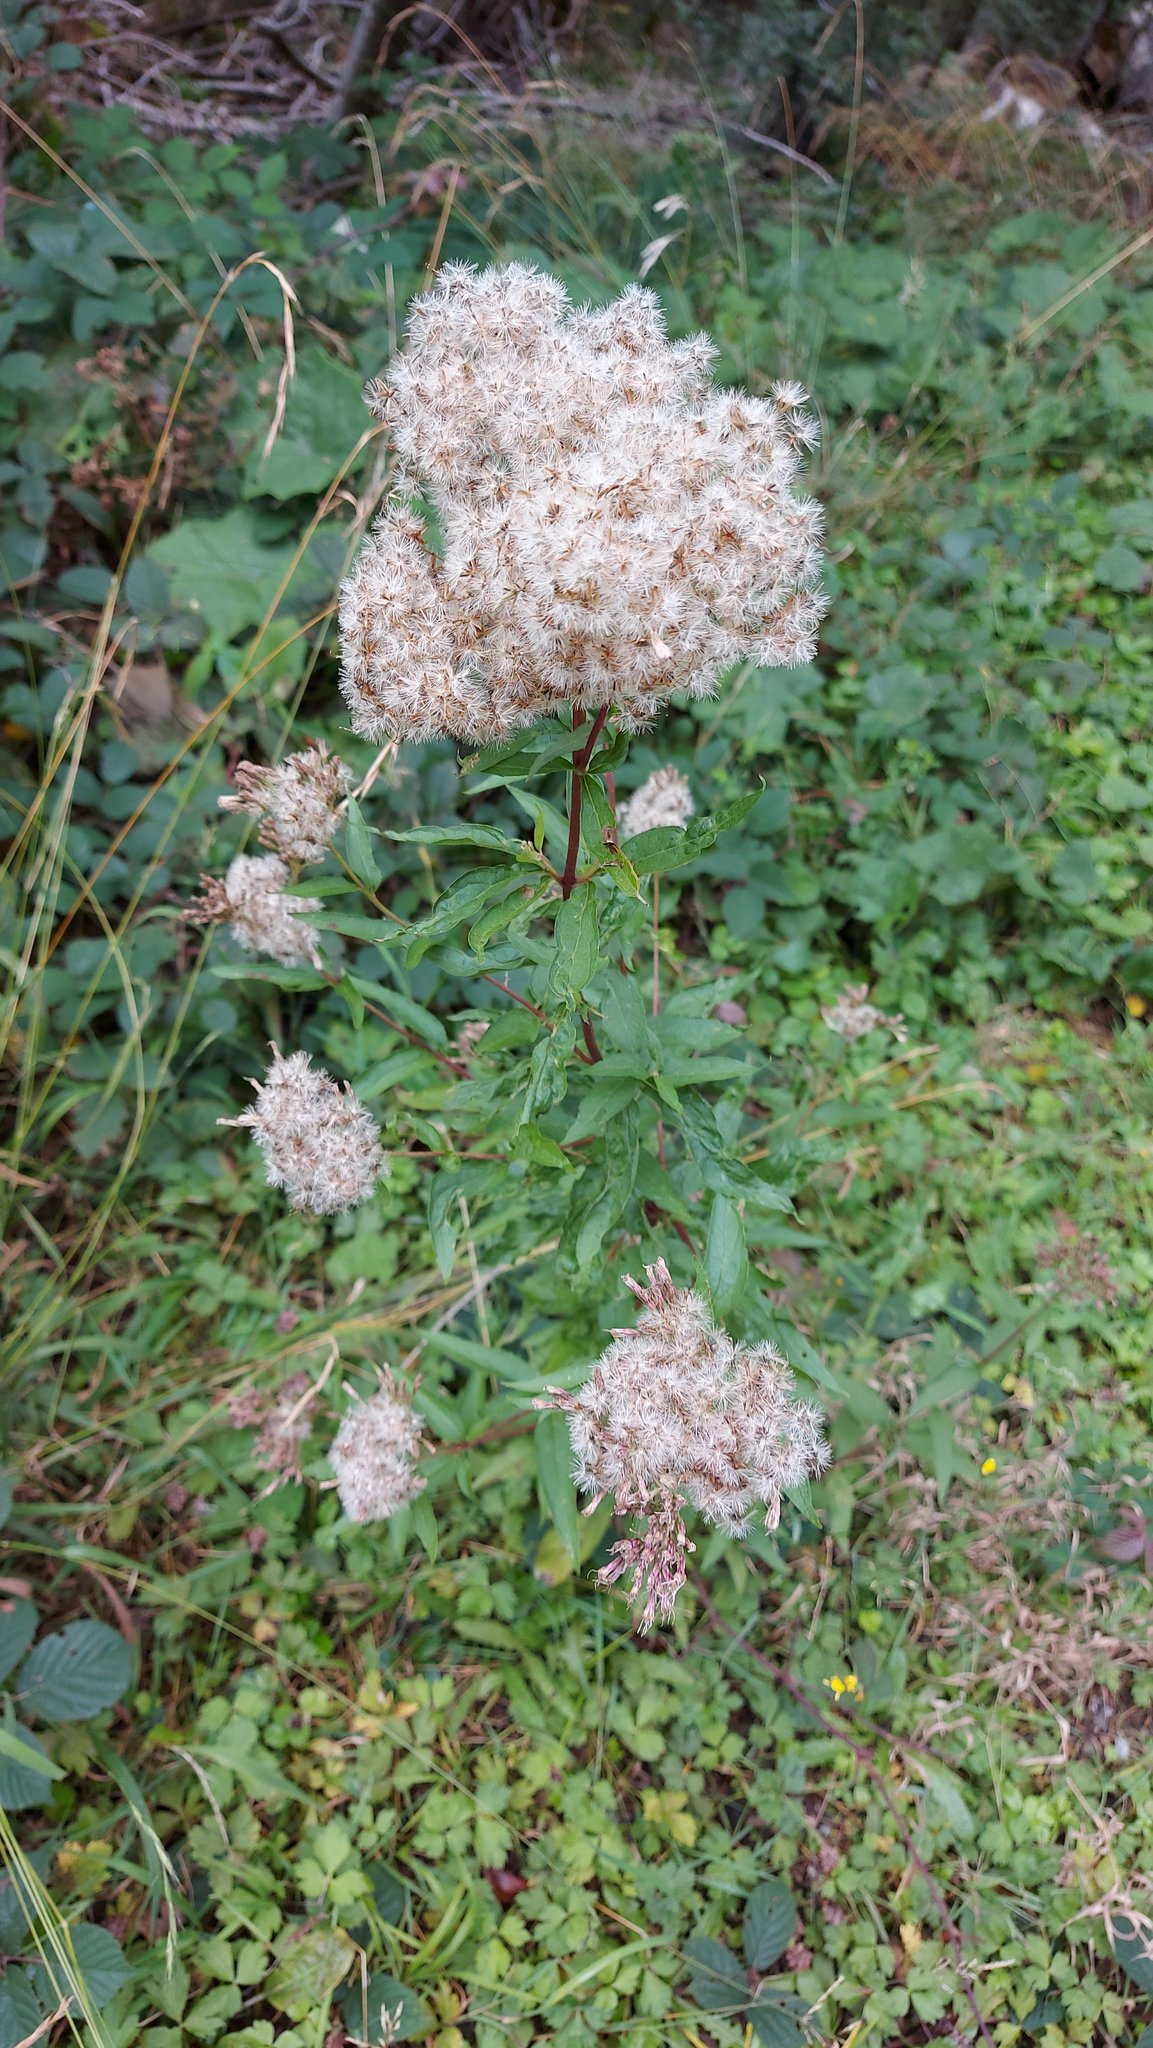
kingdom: Plantae
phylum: Tracheophyta
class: Magnoliopsida
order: Asterales
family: Asteraceae
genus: Eupatorium
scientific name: Eupatorium cannabinum
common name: Hemp-agrimony
